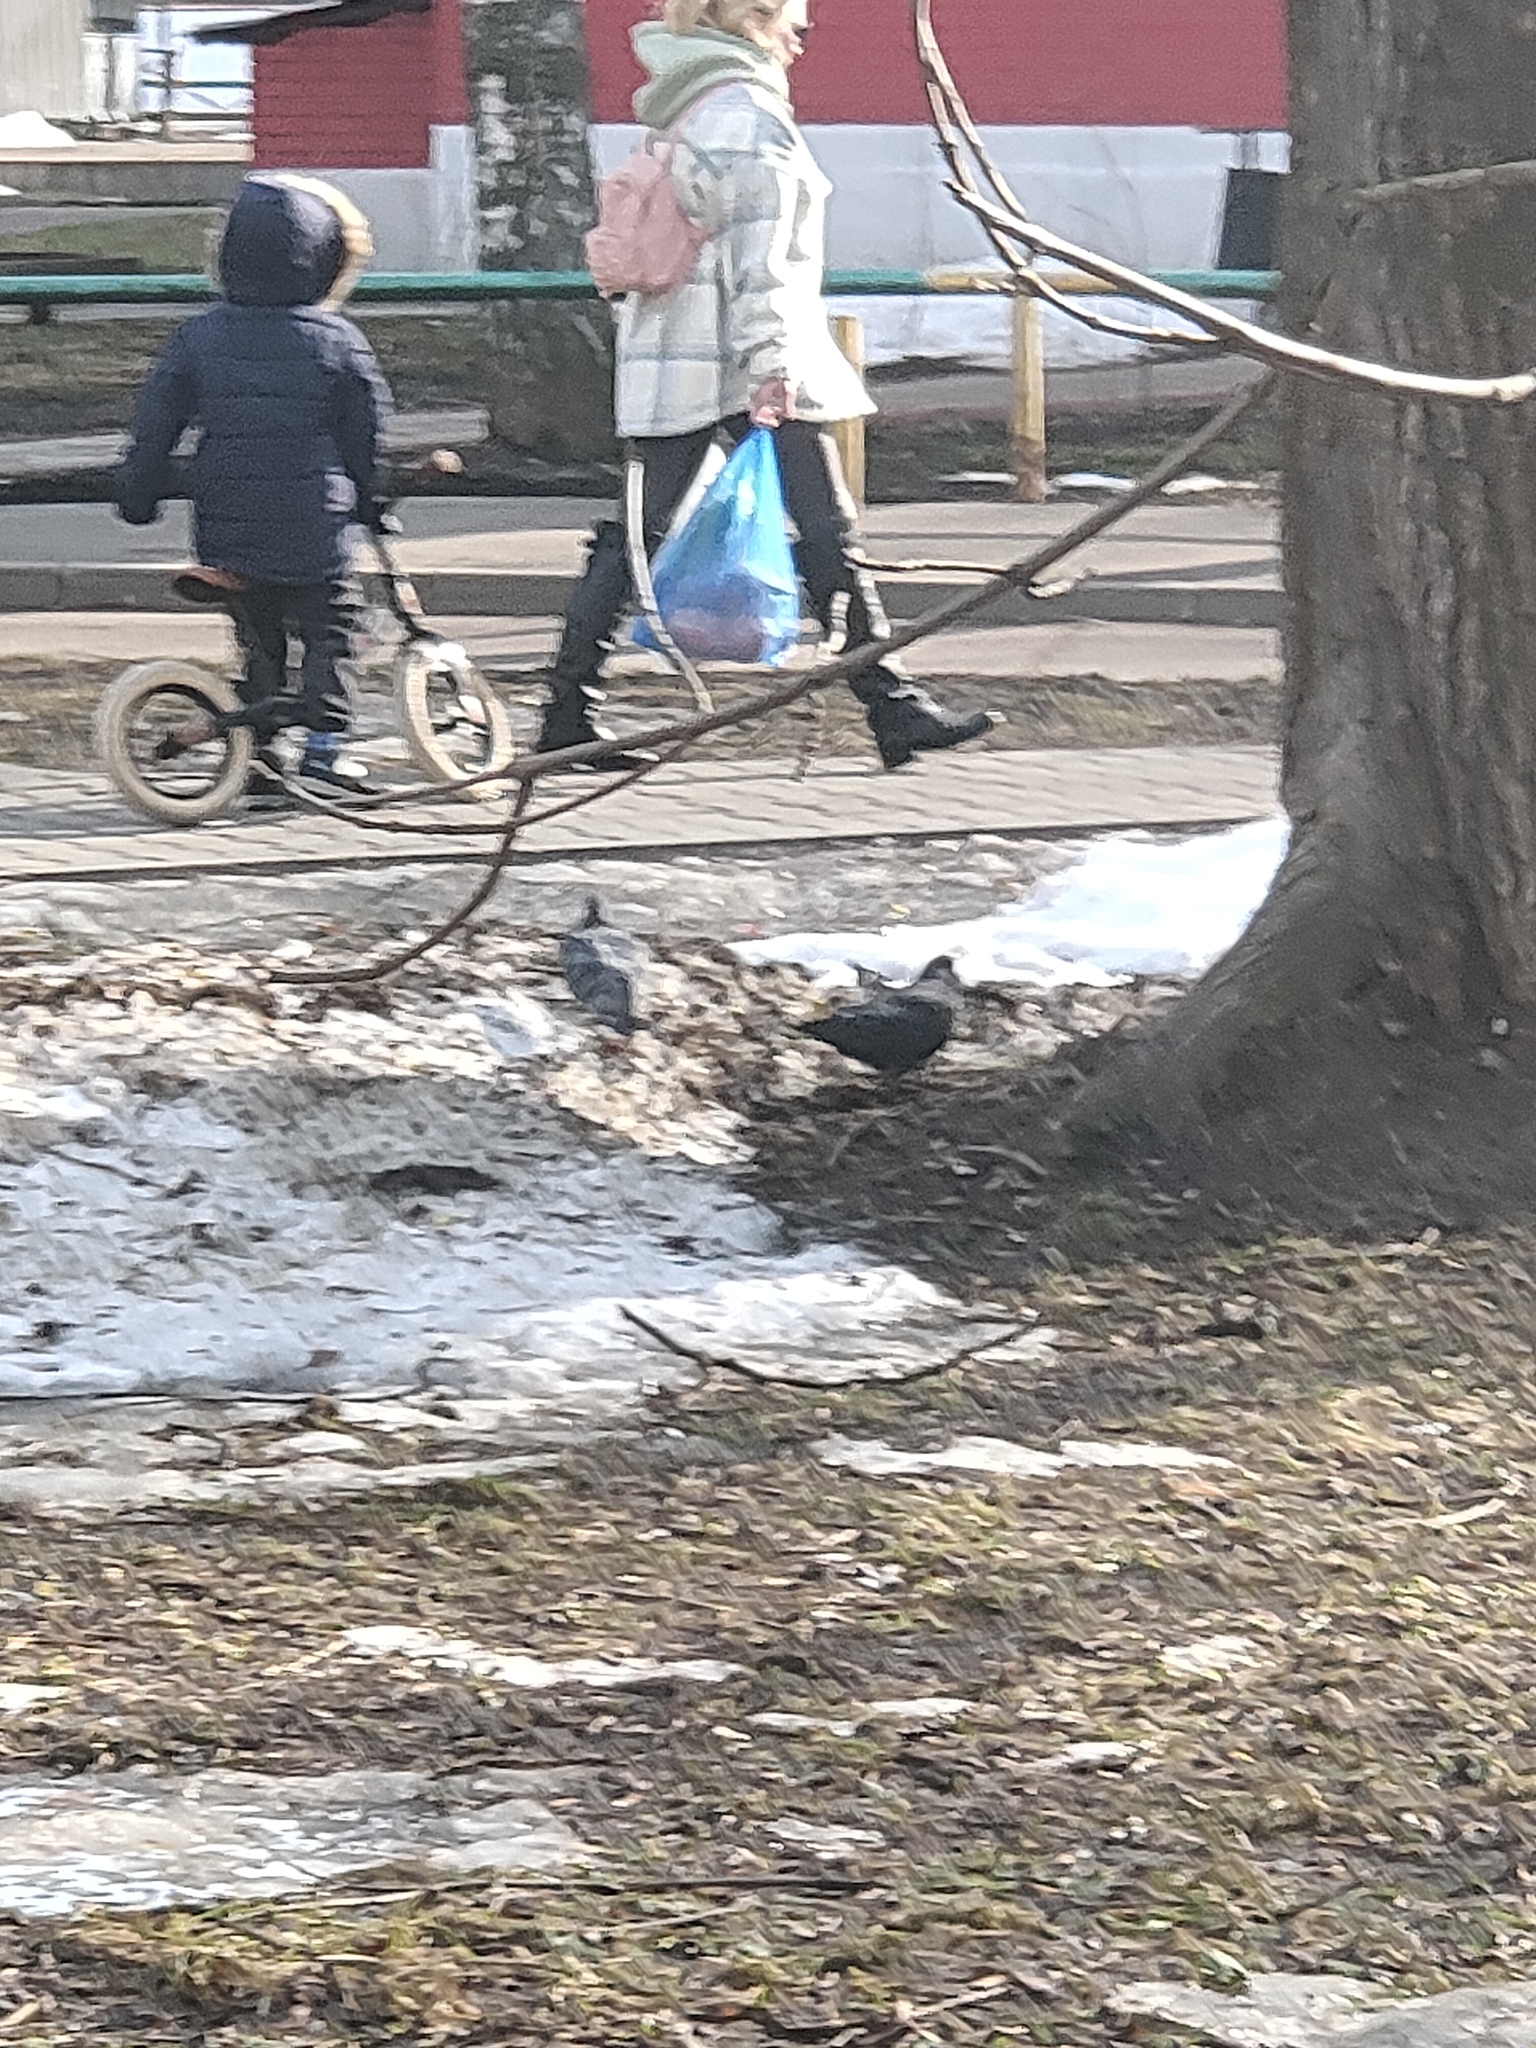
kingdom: Animalia
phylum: Chordata
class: Aves
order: Columbiformes
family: Columbidae
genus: Columba
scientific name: Columba livia
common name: Rock pigeon
